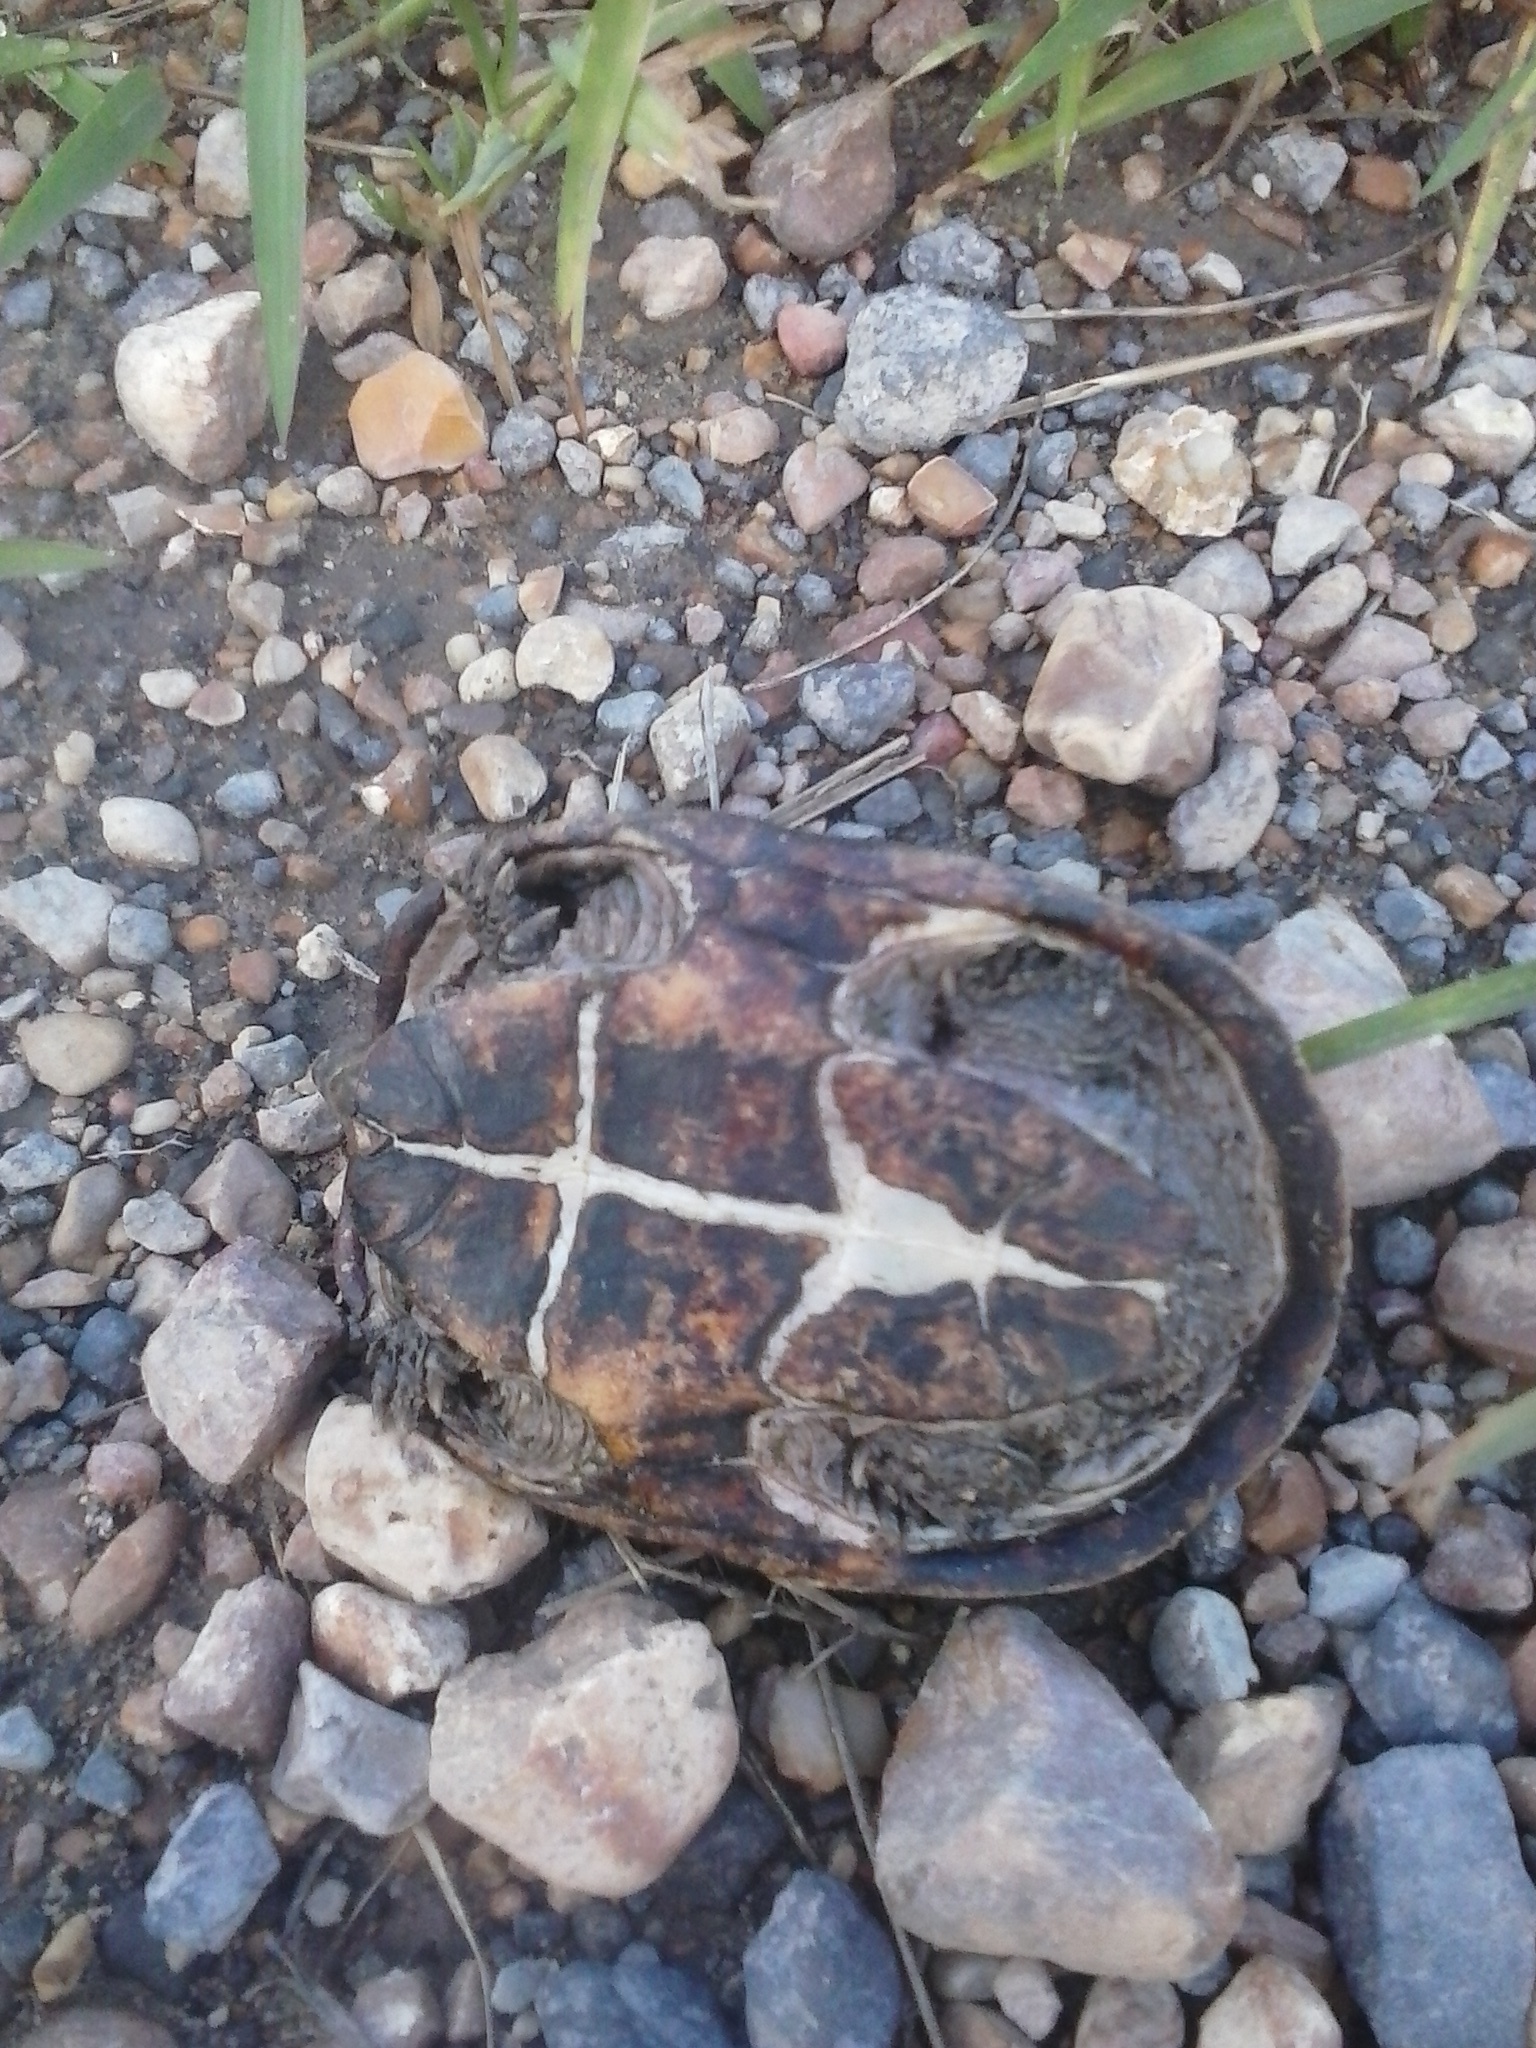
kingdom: Animalia
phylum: Chordata
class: Testudines
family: Kinosternidae
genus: Sternotherus
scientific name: Sternotherus odoratus
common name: Common musk turtle
